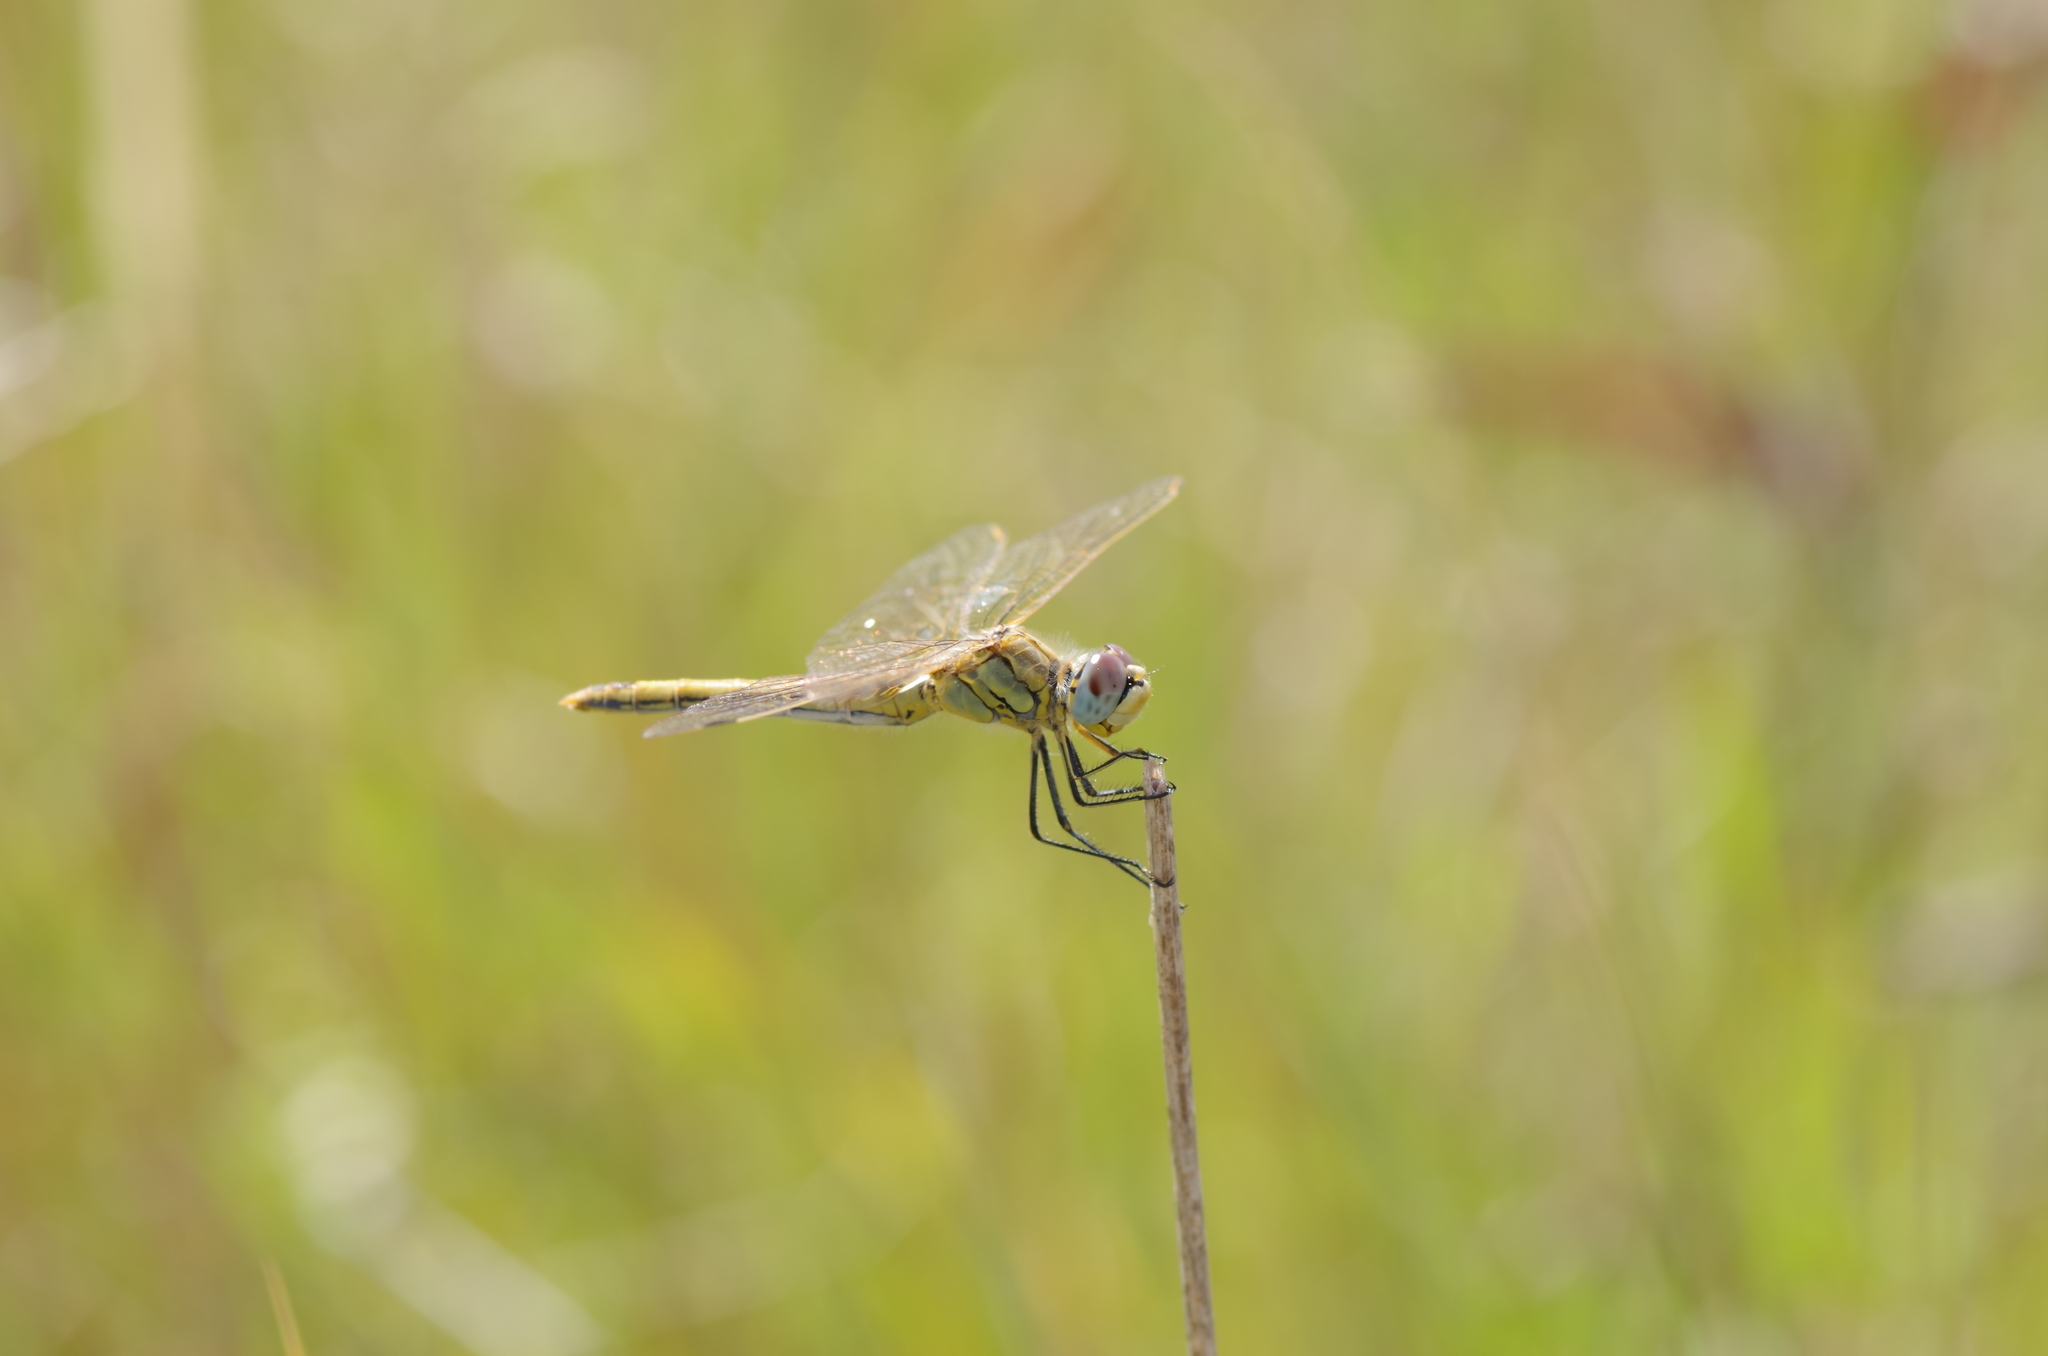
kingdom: Animalia
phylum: Arthropoda
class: Insecta
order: Odonata
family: Libellulidae
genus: Sympetrum
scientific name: Sympetrum fonscolombii
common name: Red-veined darter
